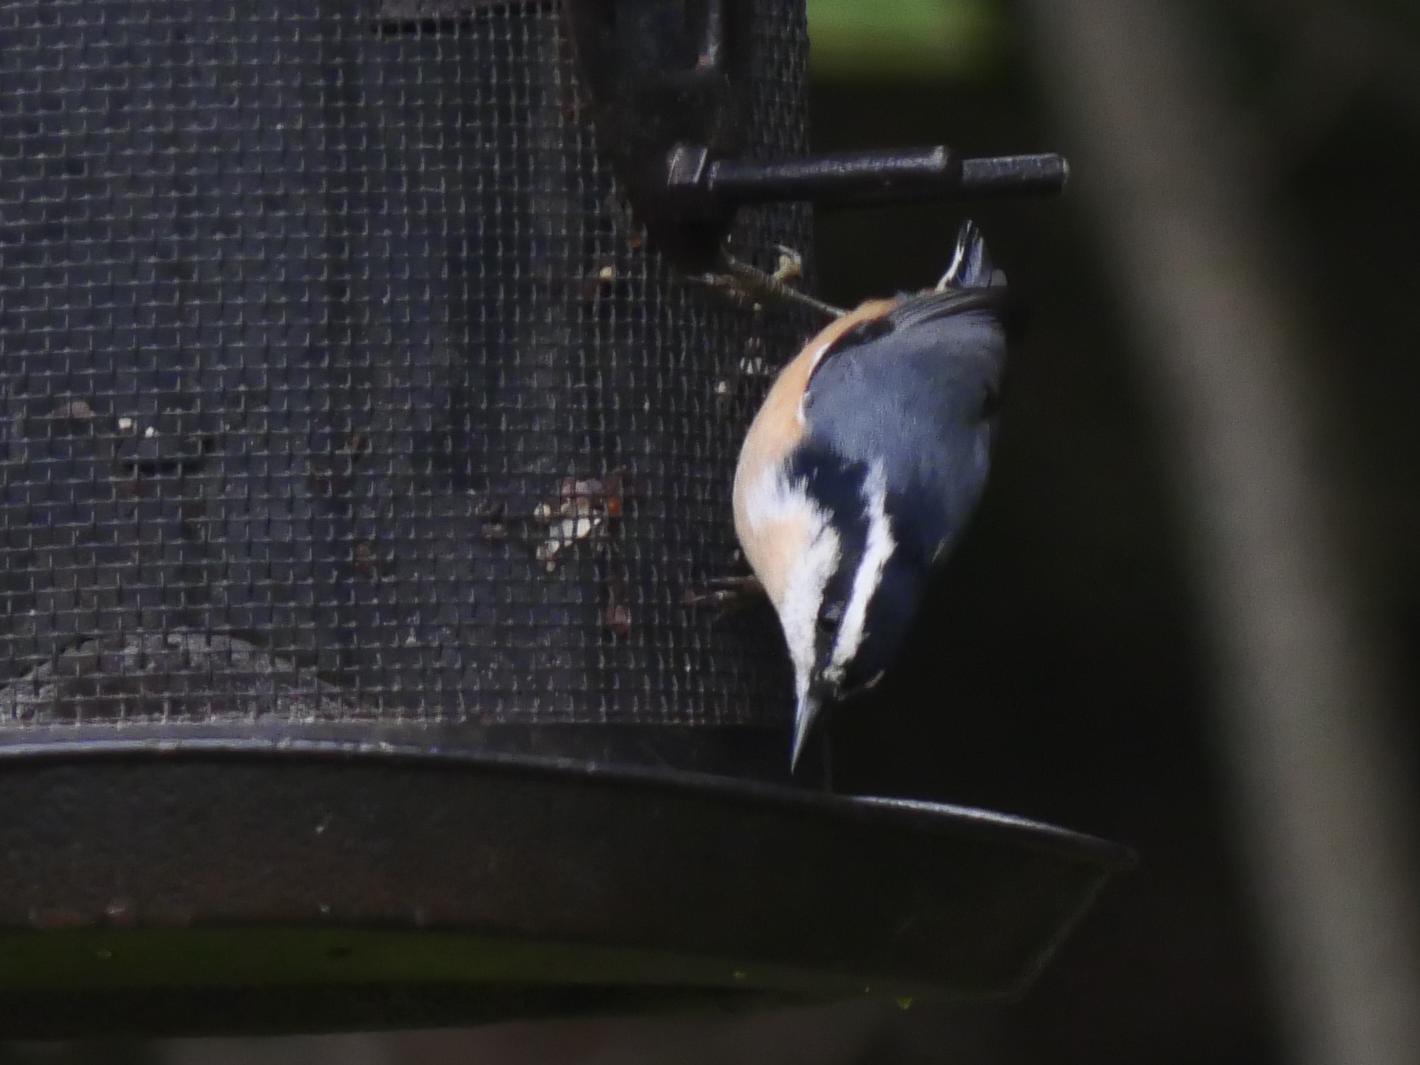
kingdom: Animalia
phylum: Chordata
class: Aves
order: Passeriformes
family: Sittidae
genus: Sitta
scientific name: Sitta canadensis
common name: Red-breasted nuthatch
